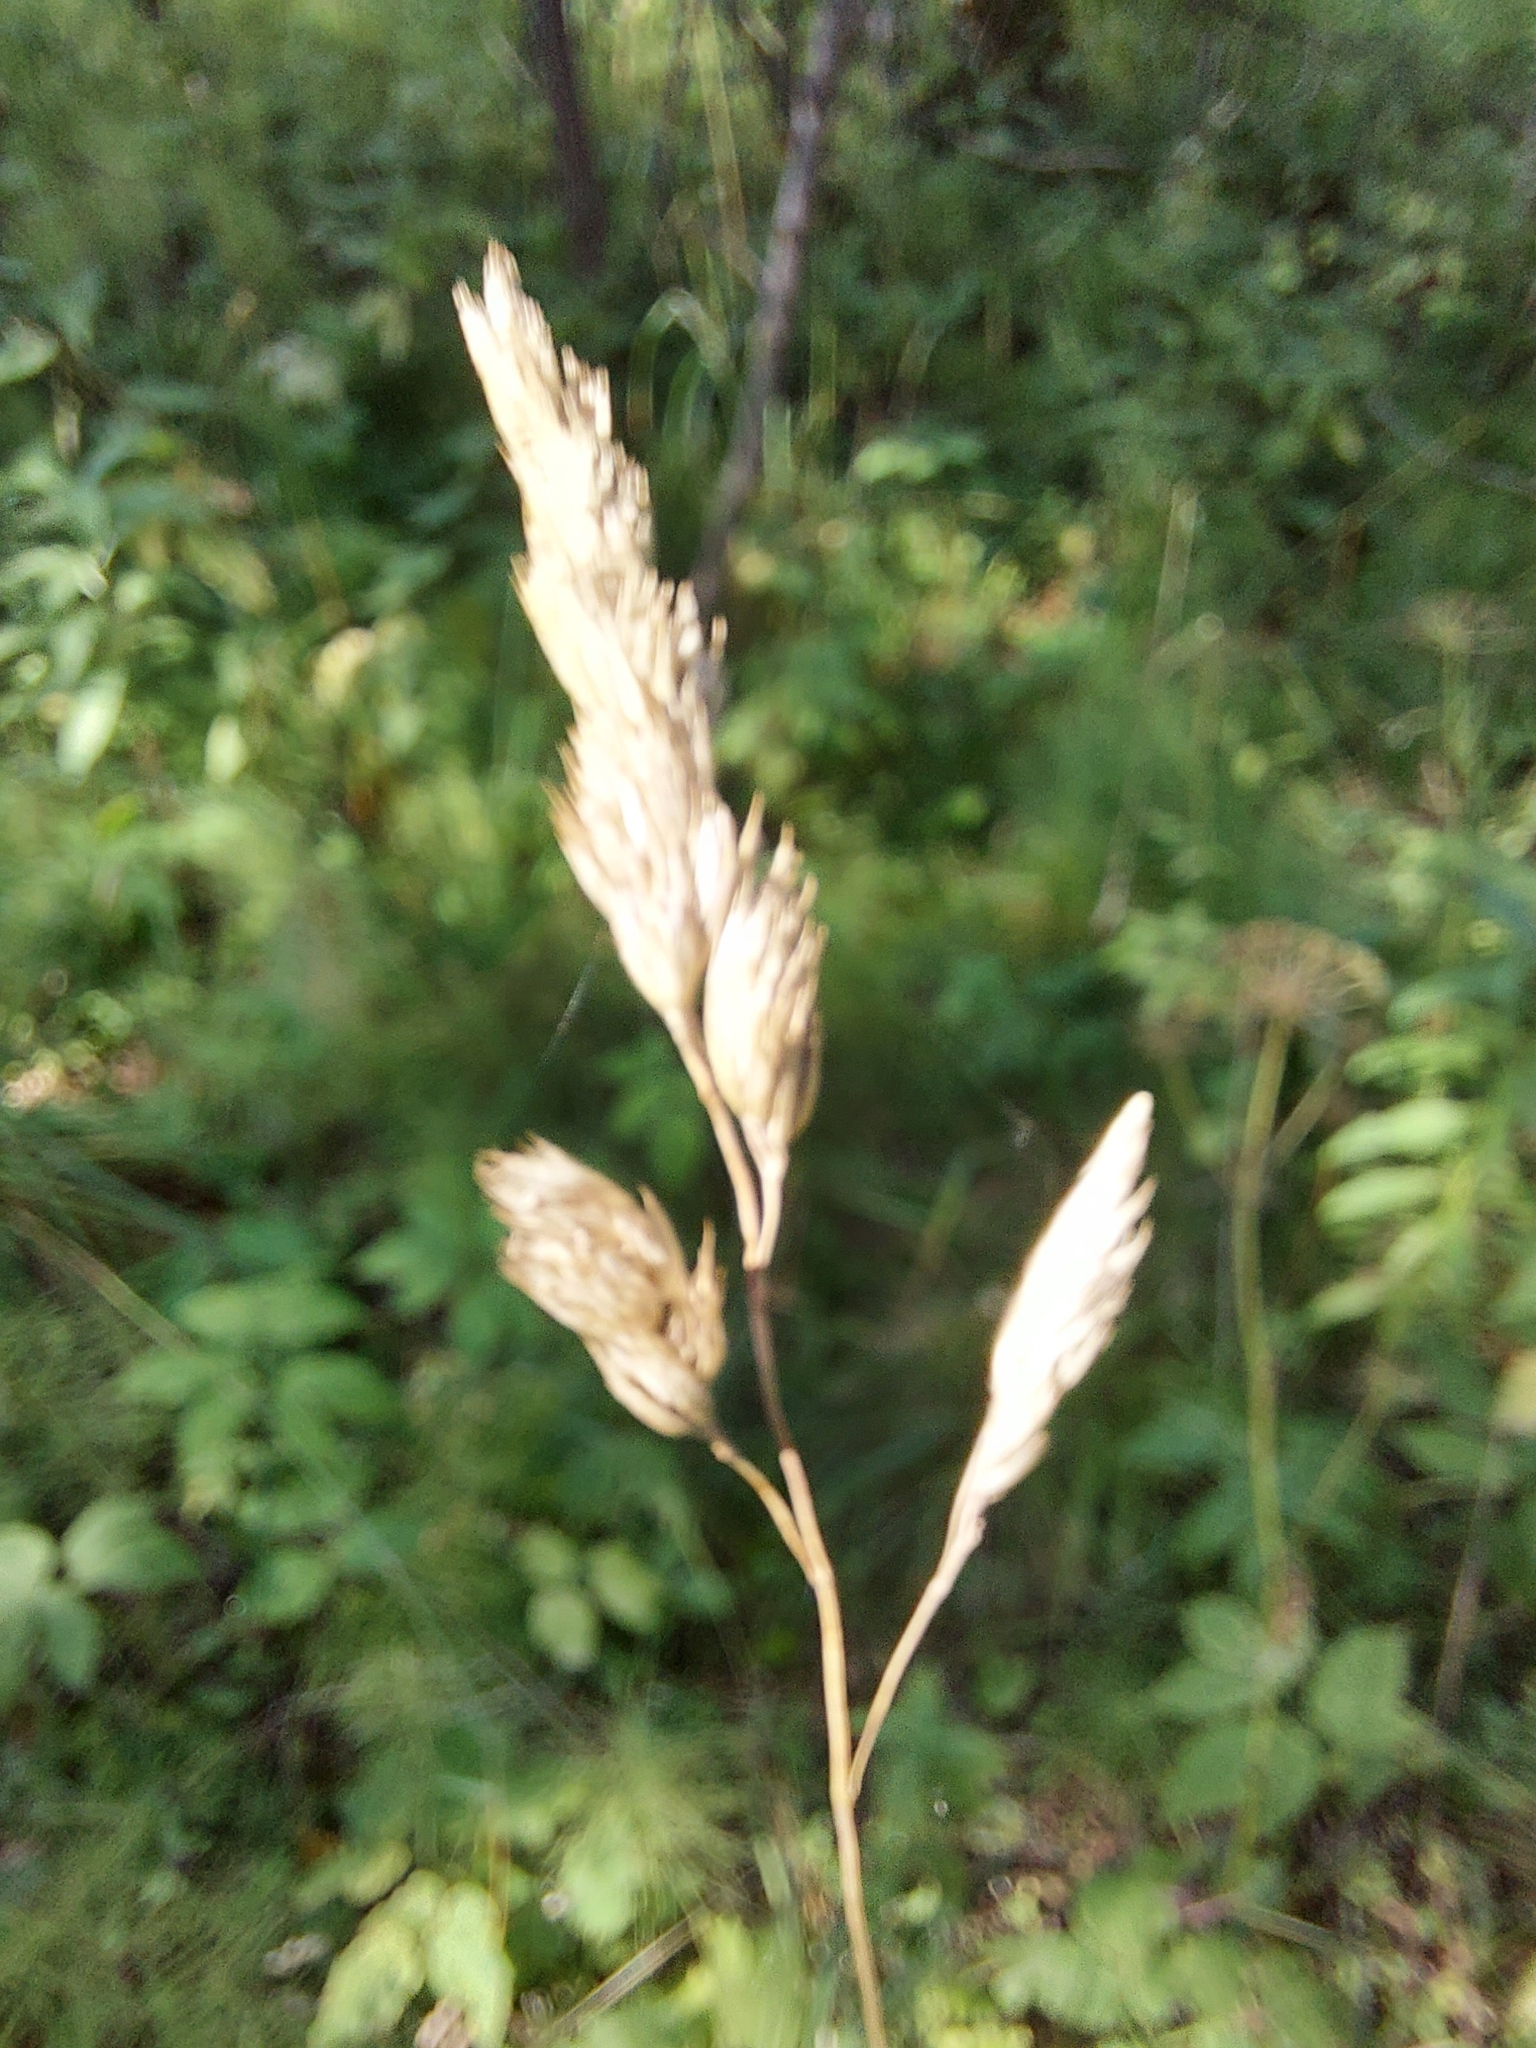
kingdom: Plantae
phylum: Tracheophyta
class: Liliopsida
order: Poales
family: Poaceae
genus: Dactylis
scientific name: Dactylis glomerata
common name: Orchardgrass
